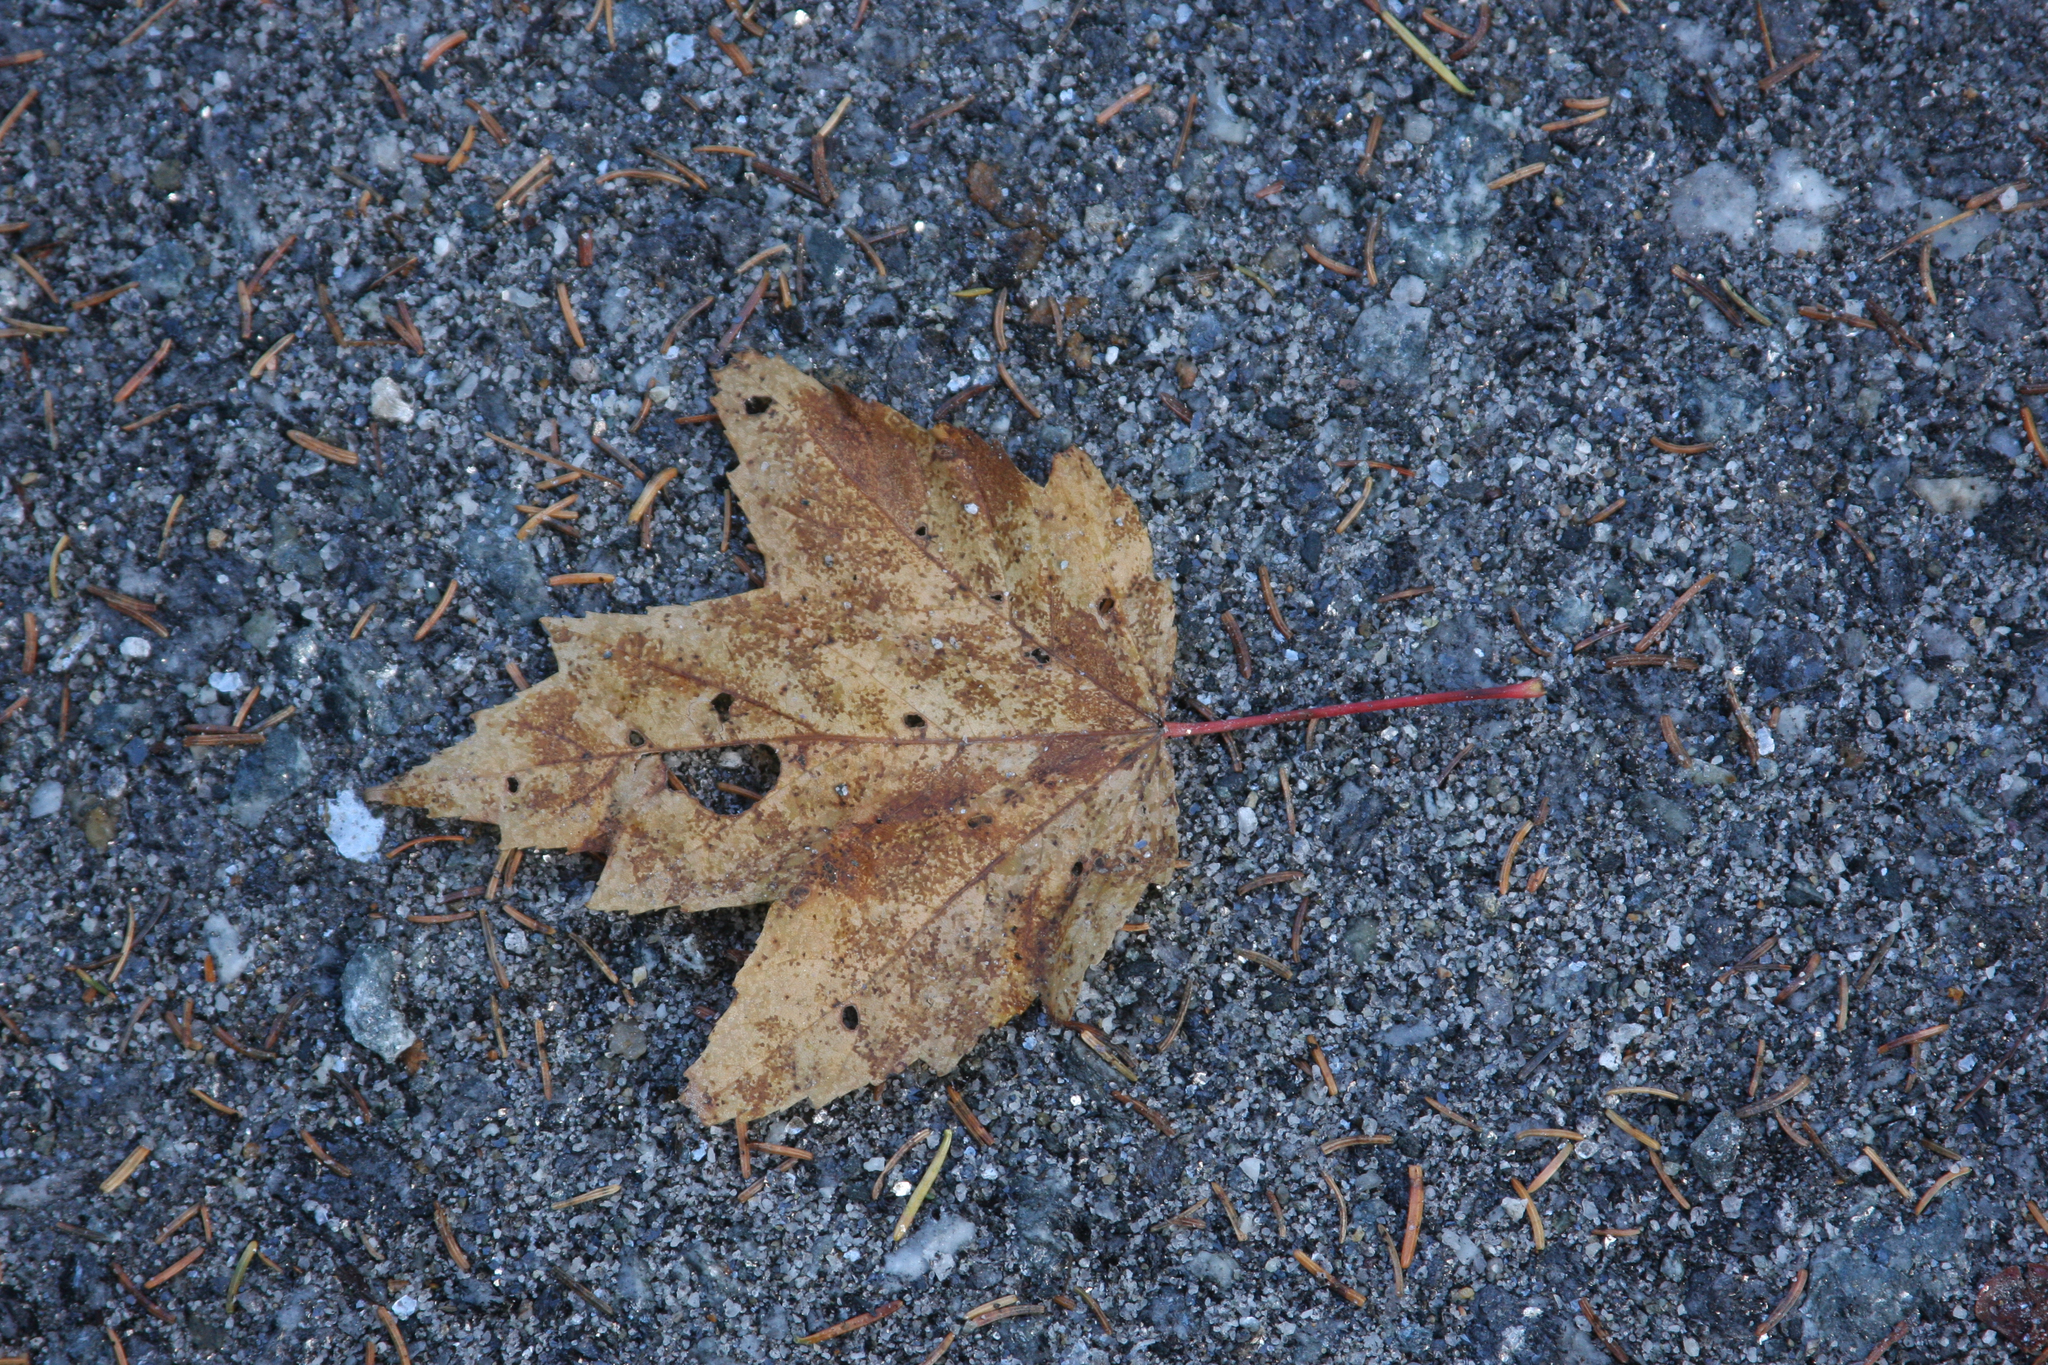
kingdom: Plantae
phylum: Tracheophyta
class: Magnoliopsida
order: Sapindales
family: Sapindaceae
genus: Acer
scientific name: Acer rubrum
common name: Red maple
